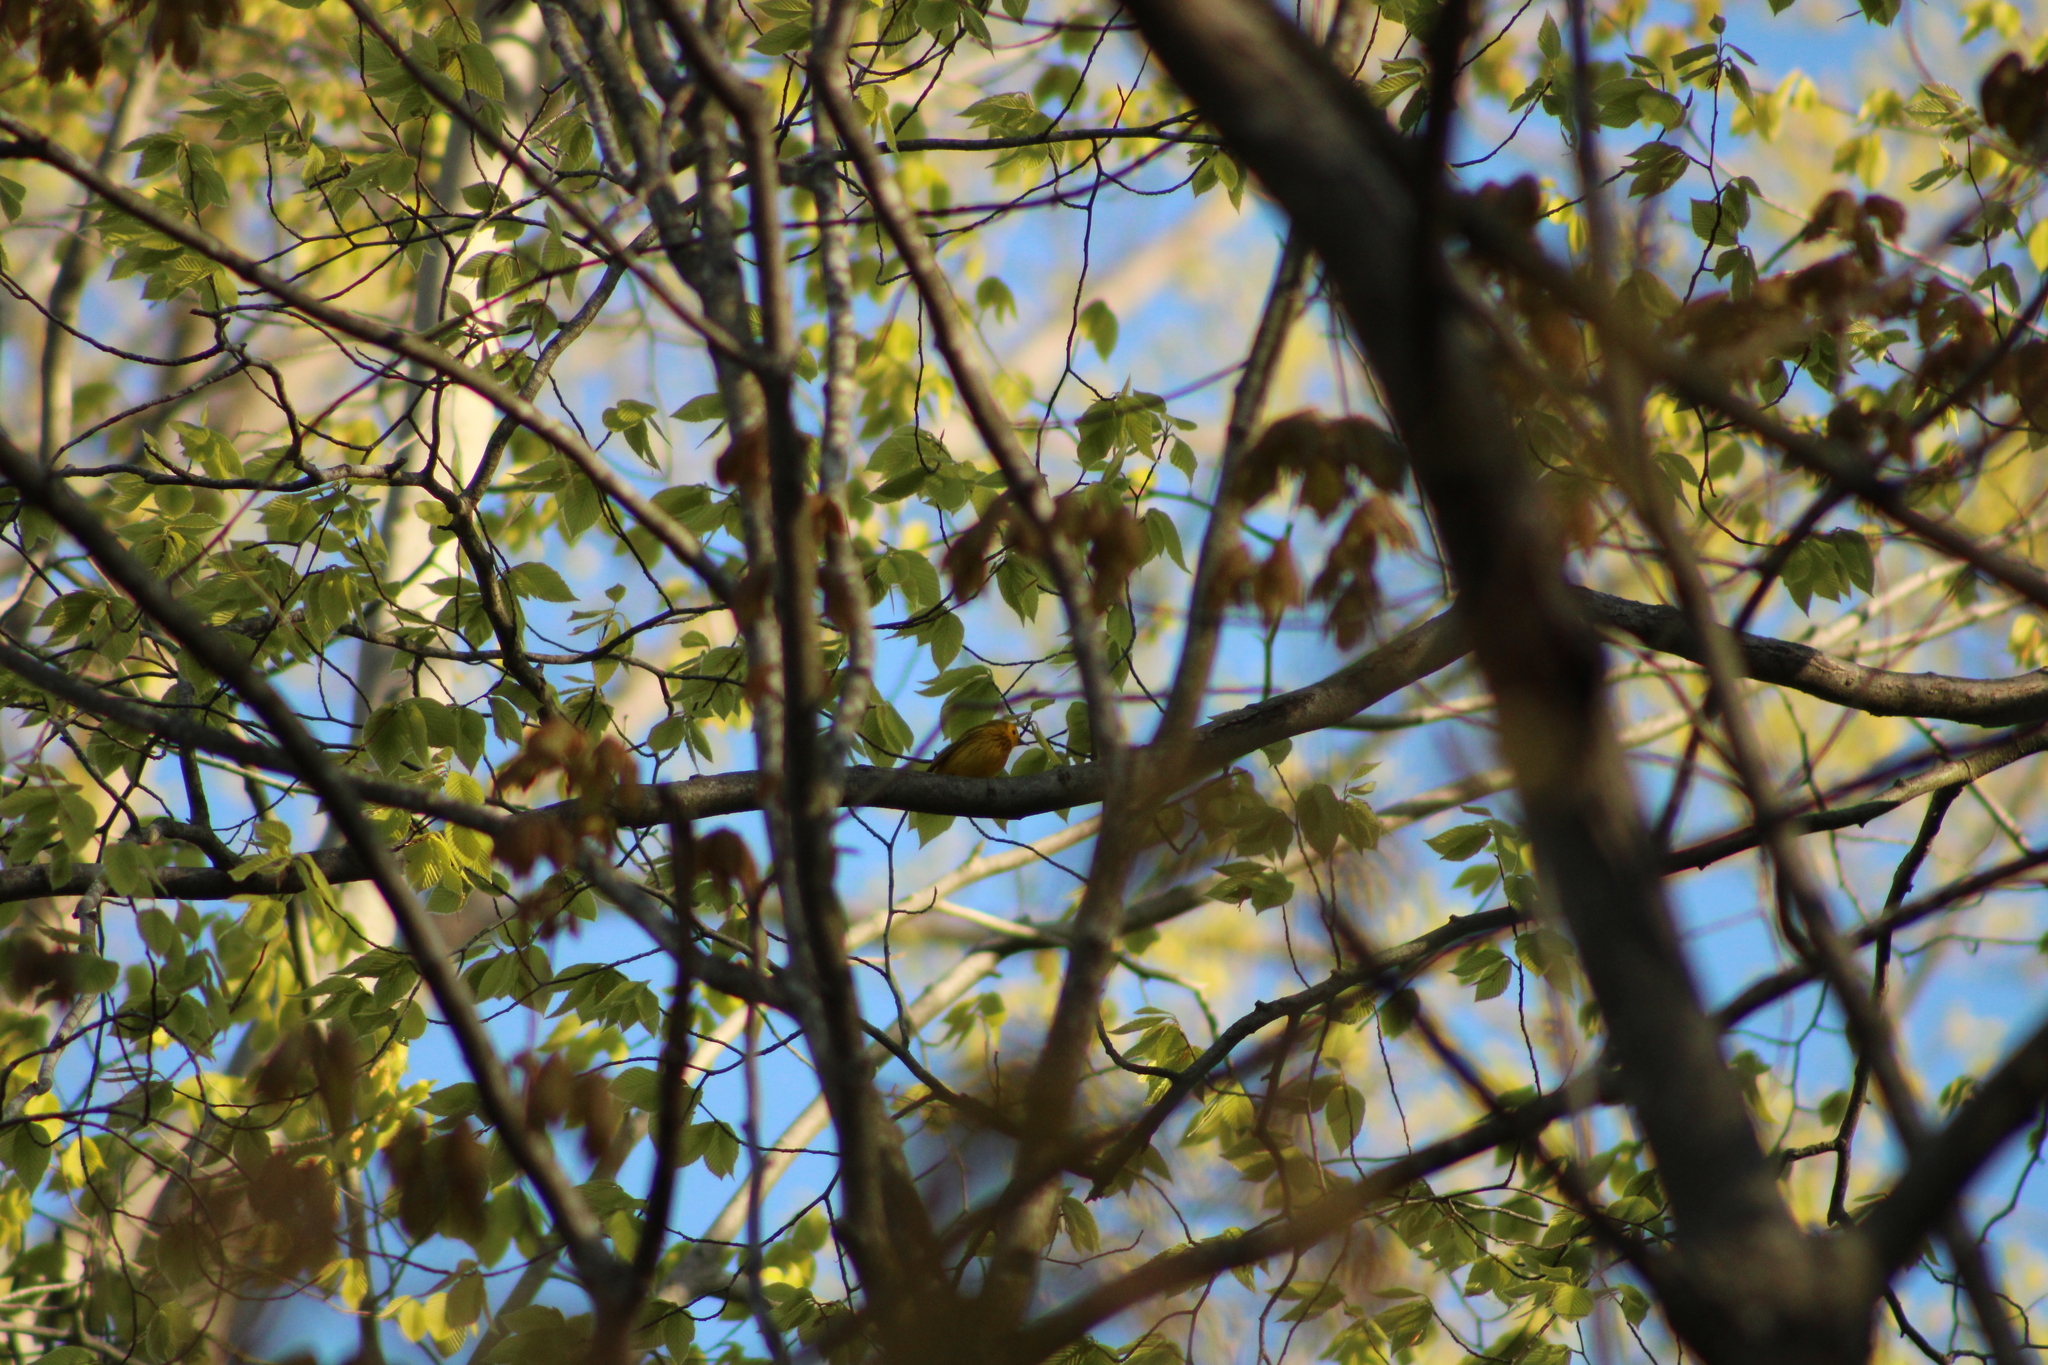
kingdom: Animalia
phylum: Chordata
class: Aves
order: Passeriformes
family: Parulidae
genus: Setophaga
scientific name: Setophaga petechia
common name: Yellow warbler
